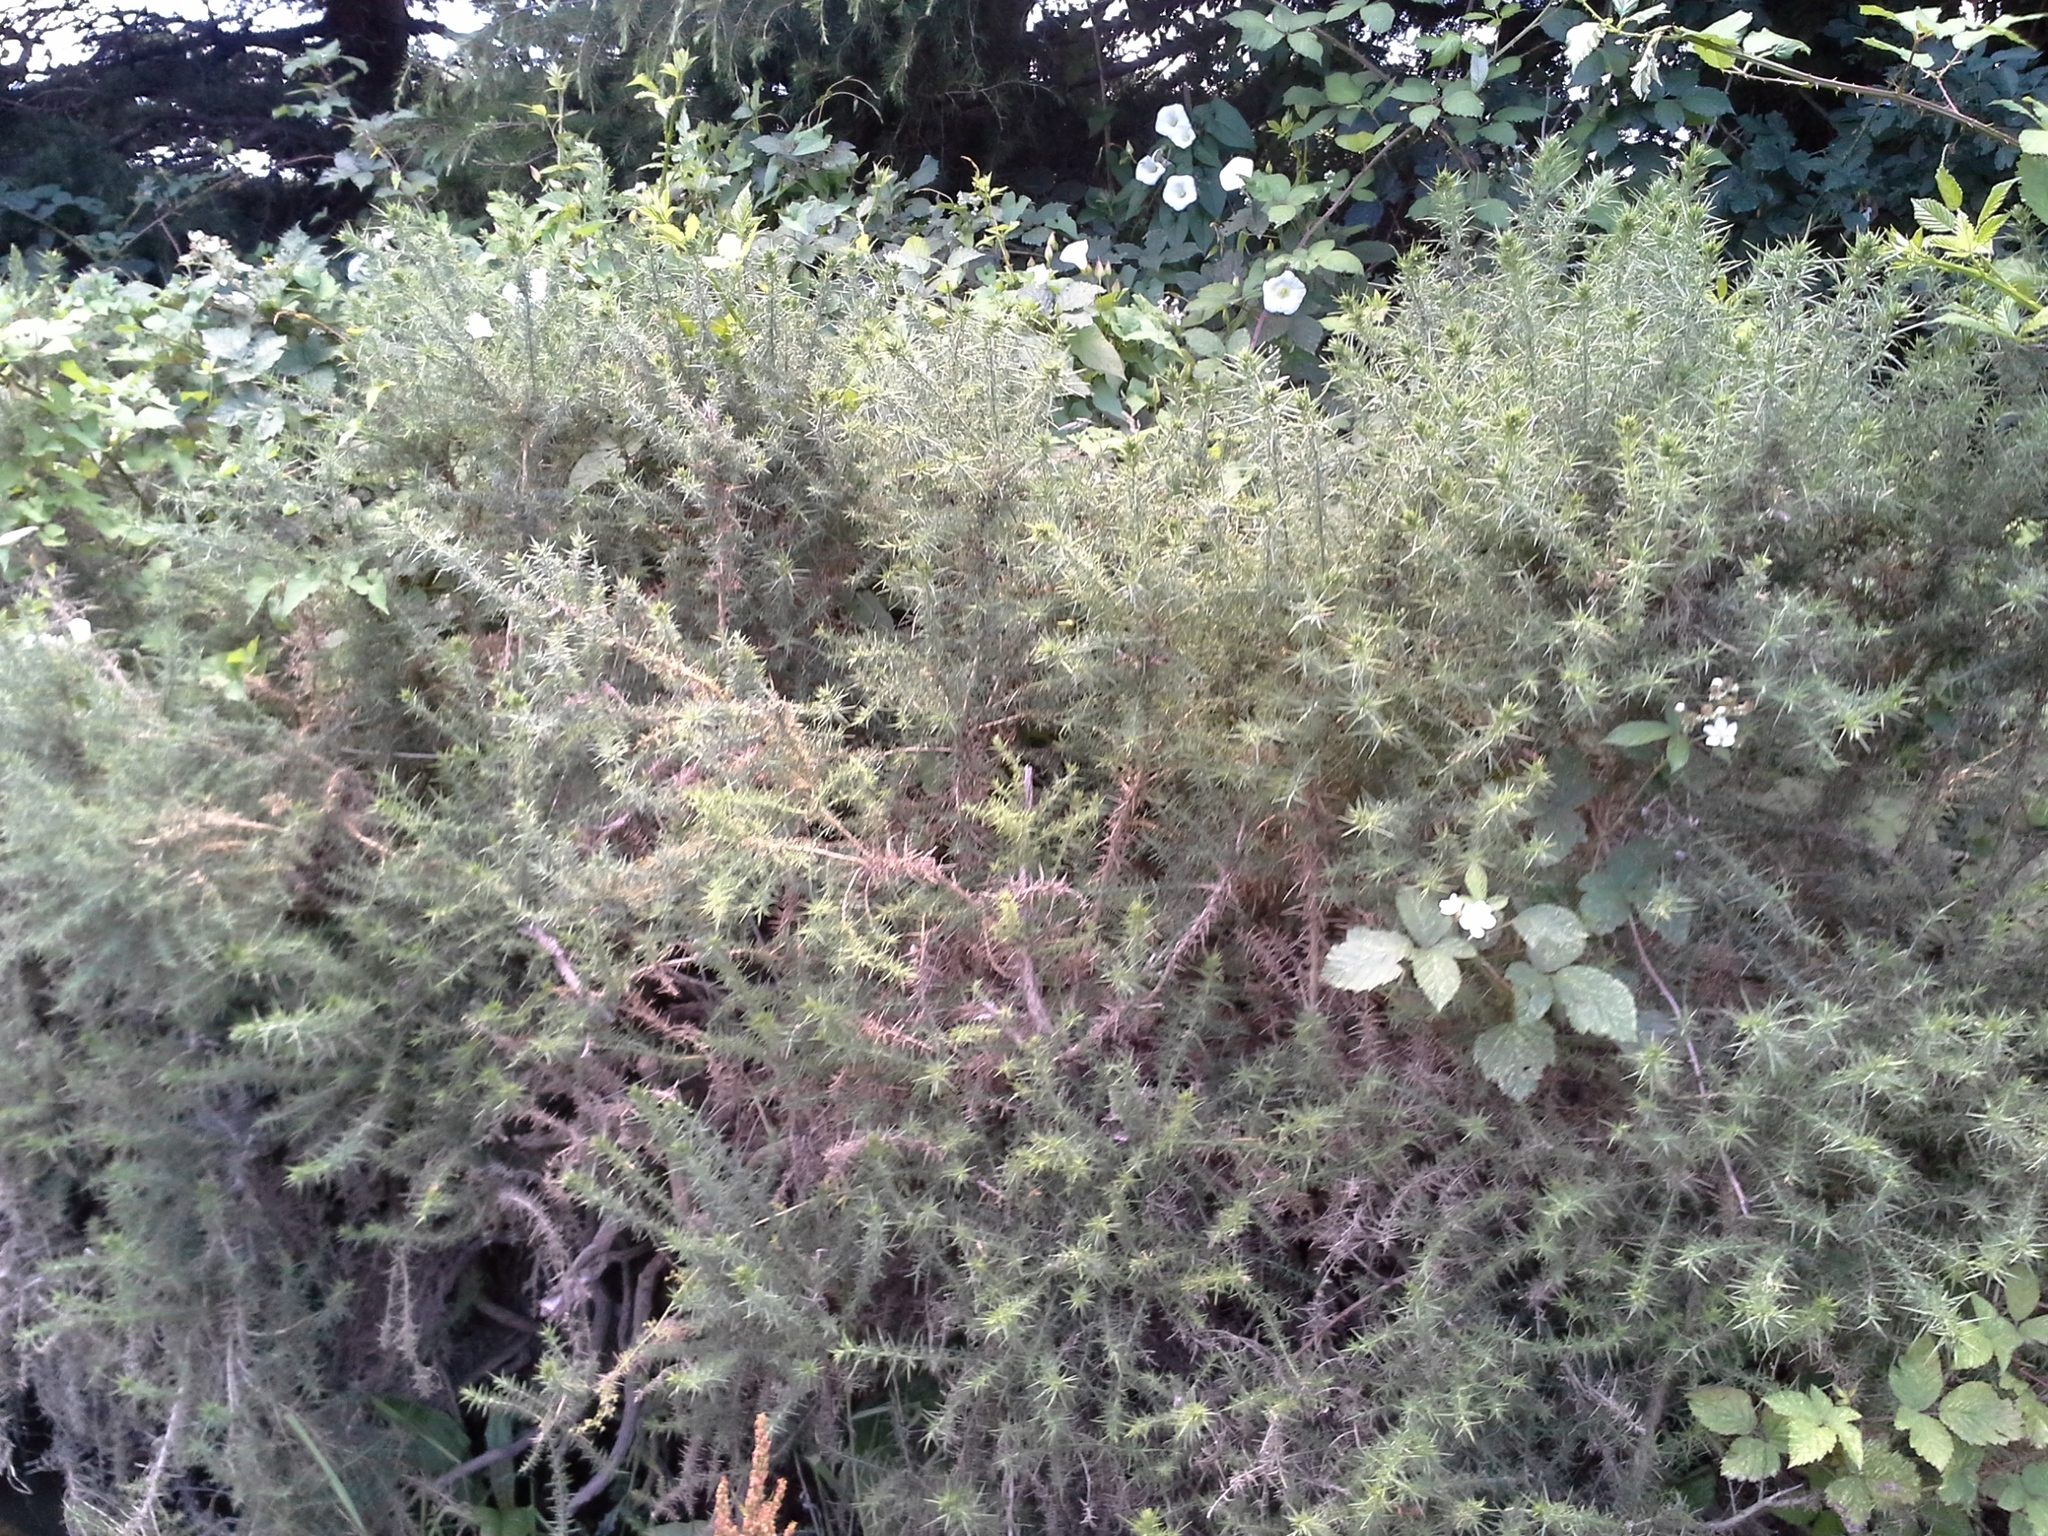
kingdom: Plantae
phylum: Tracheophyta
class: Magnoliopsida
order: Fabales
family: Fabaceae
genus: Ulex
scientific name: Ulex europaeus
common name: Common gorse
